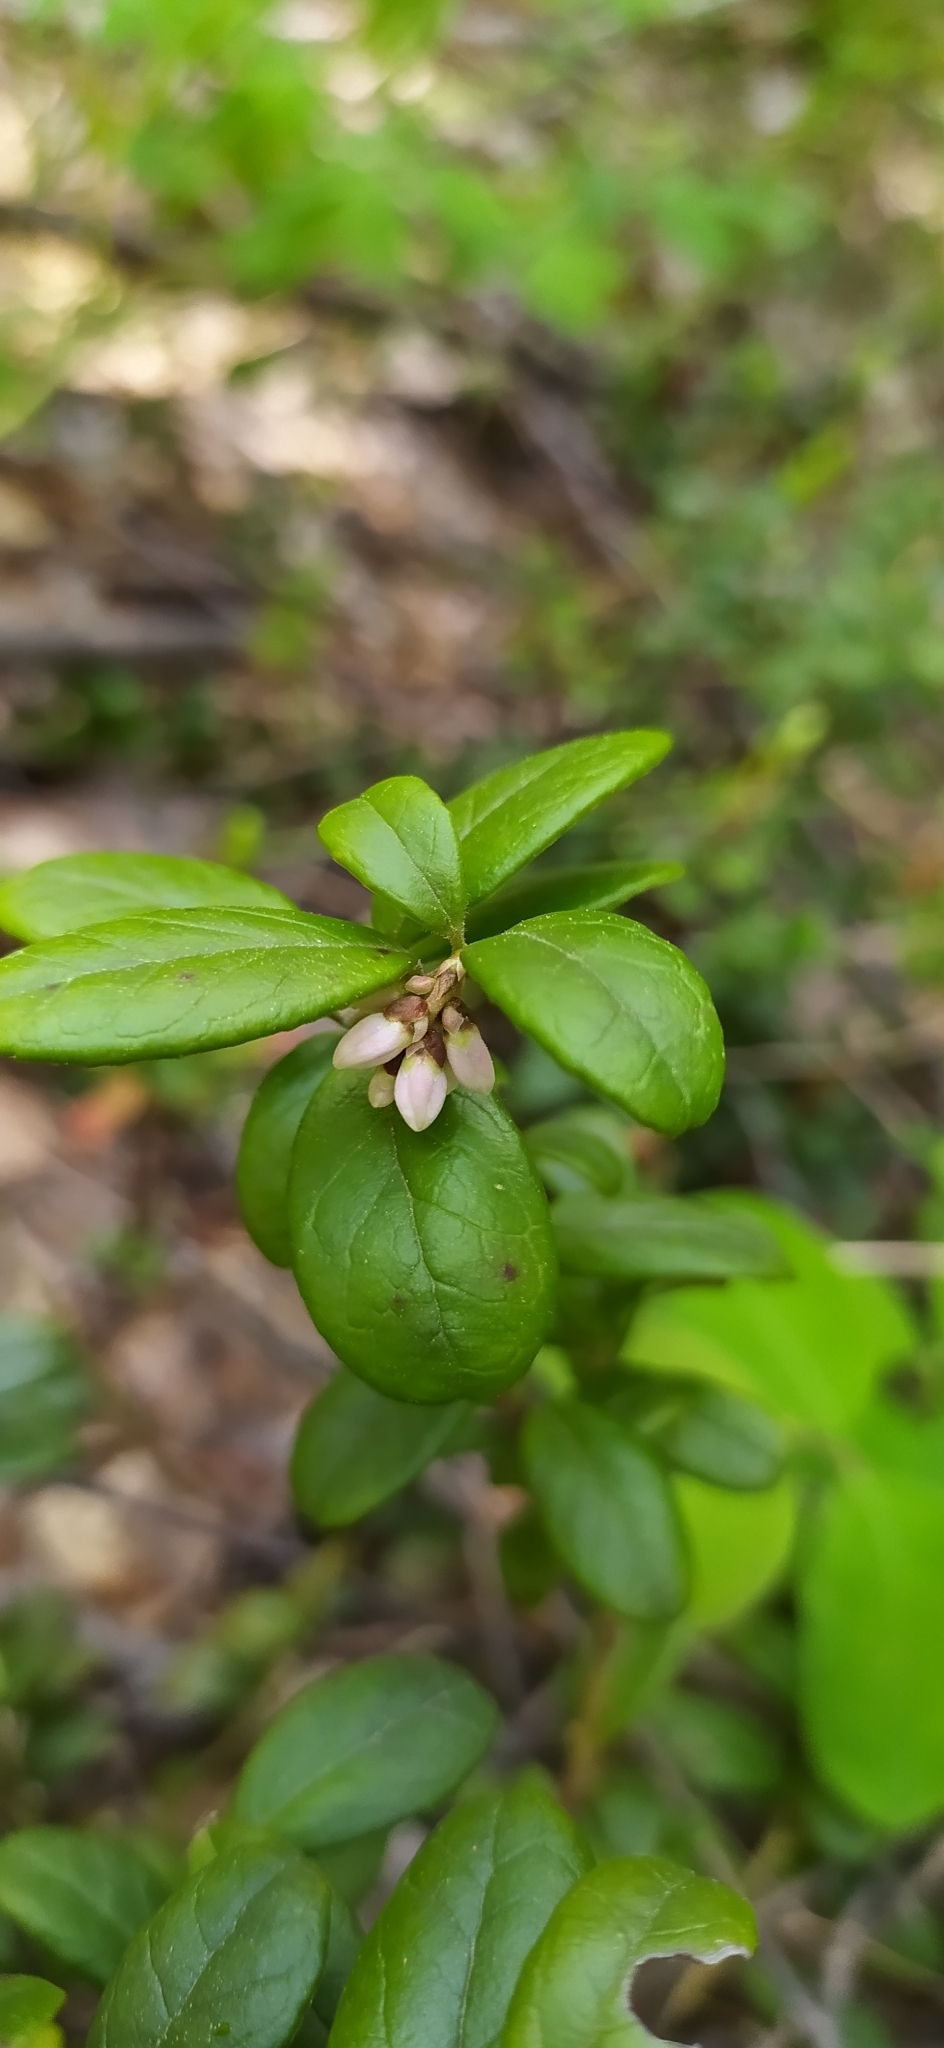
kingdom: Plantae
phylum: Tracheophyta
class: Magnoliopsida
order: Ericales
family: Ericaceae
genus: Vaccinium
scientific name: Vaccinium vitis-idaea
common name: Cowberry
